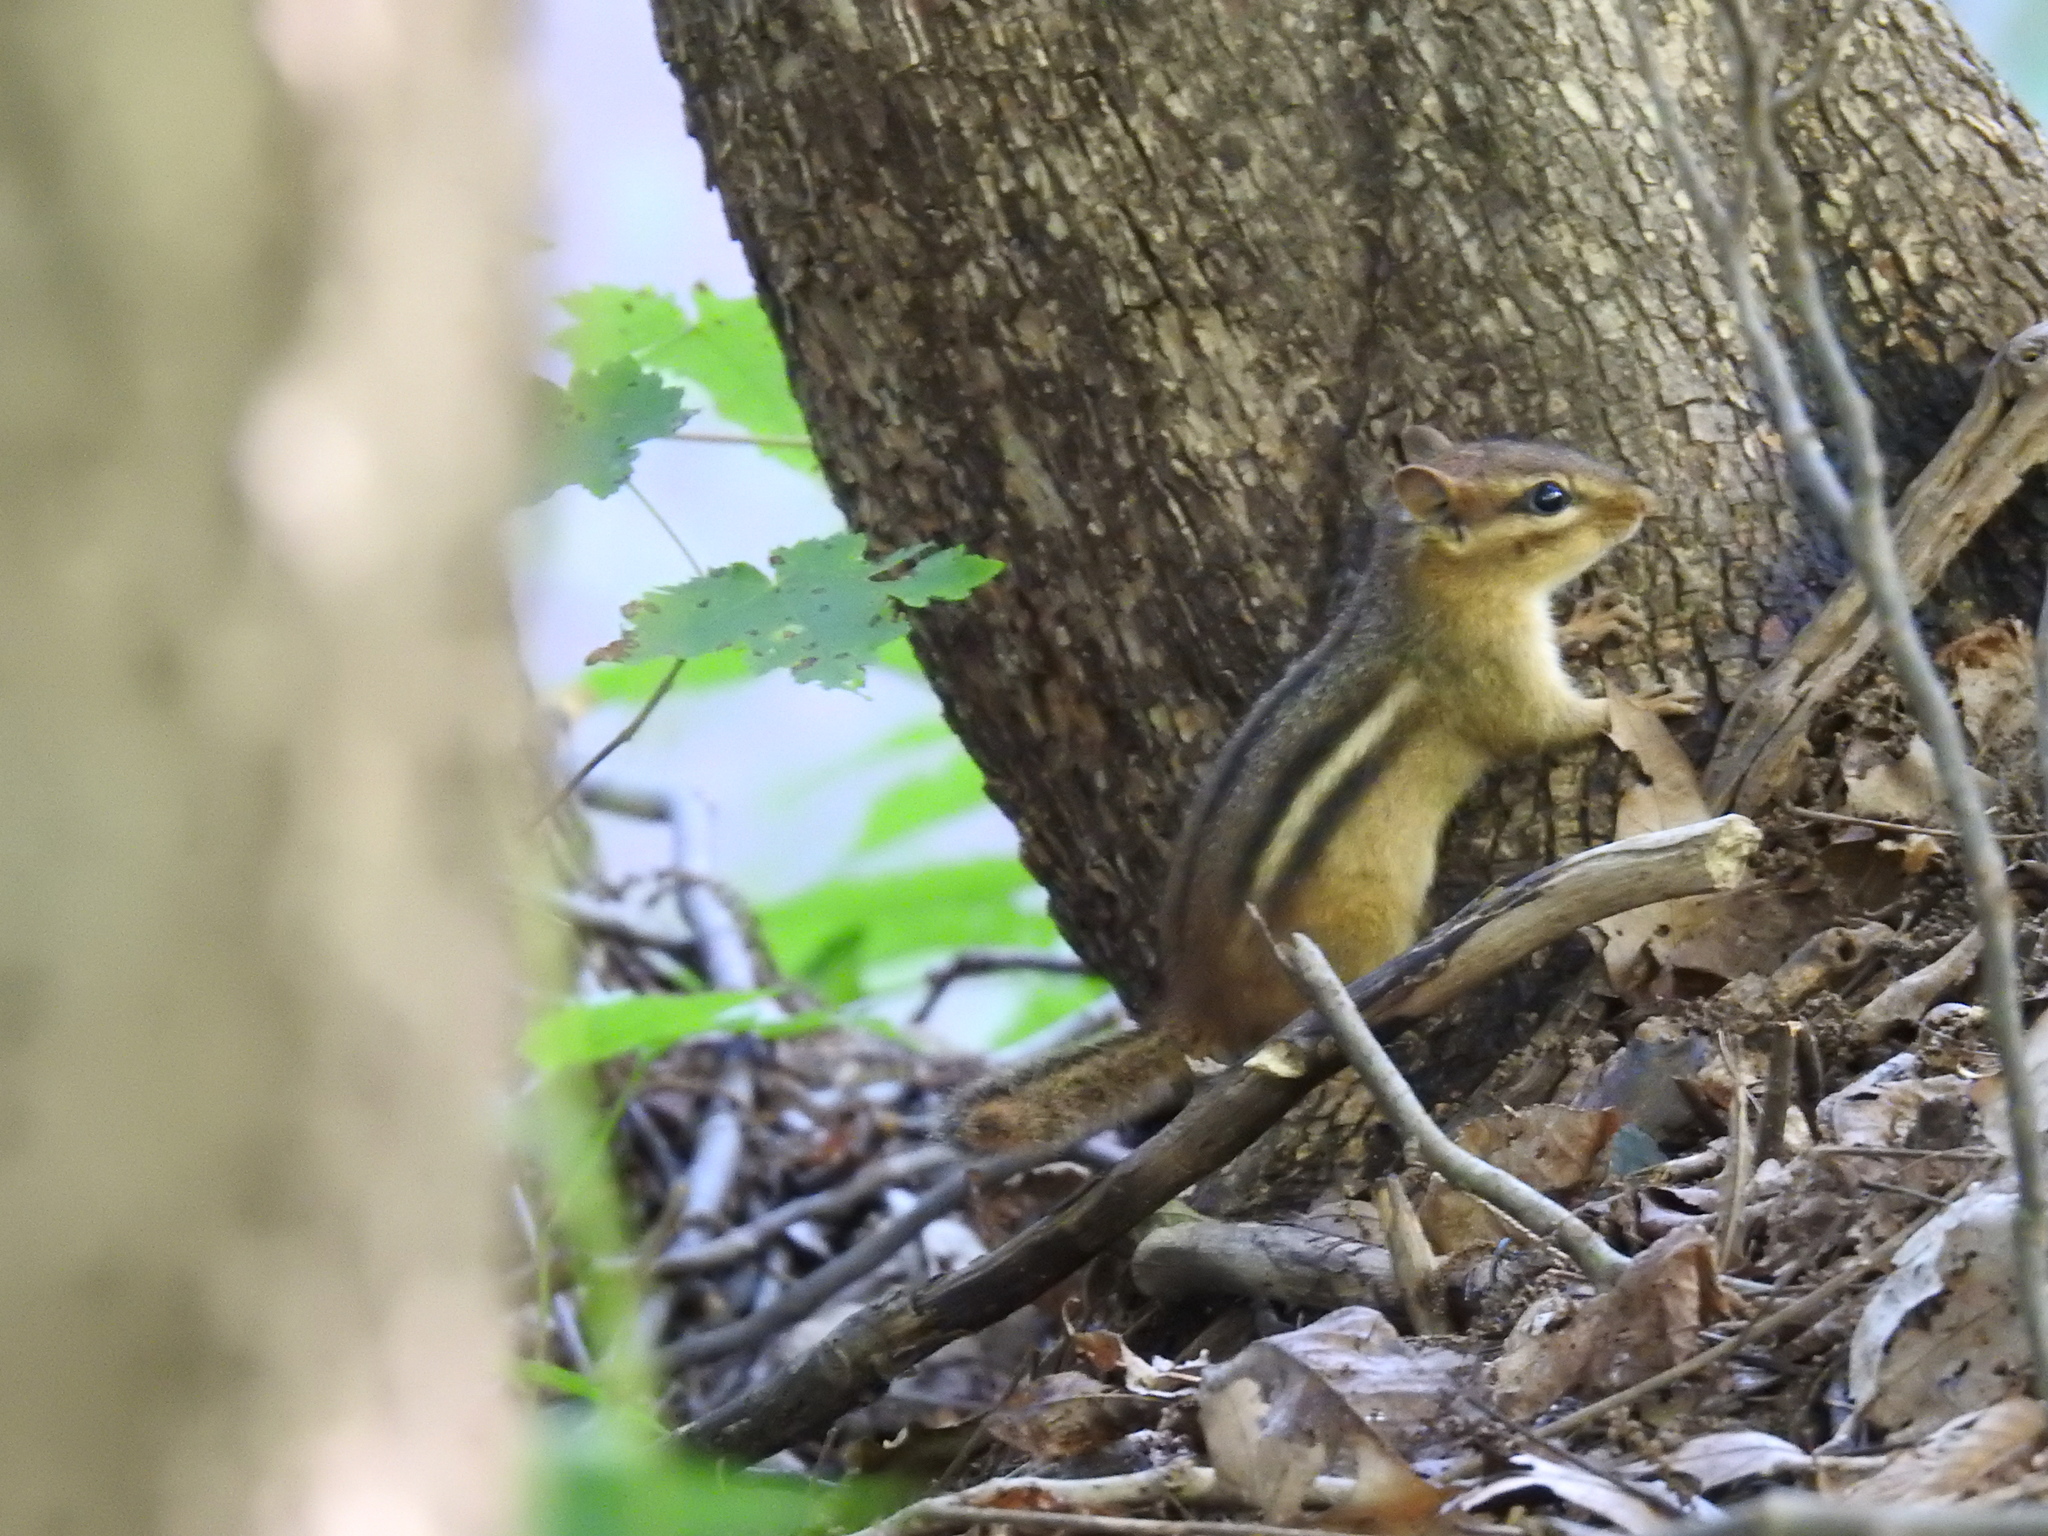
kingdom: Animalia
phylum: Chordata
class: Mammalia
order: Rodentia
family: Sciuridae
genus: Tamias
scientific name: Tamias striatus
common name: Eastern chipmunk
